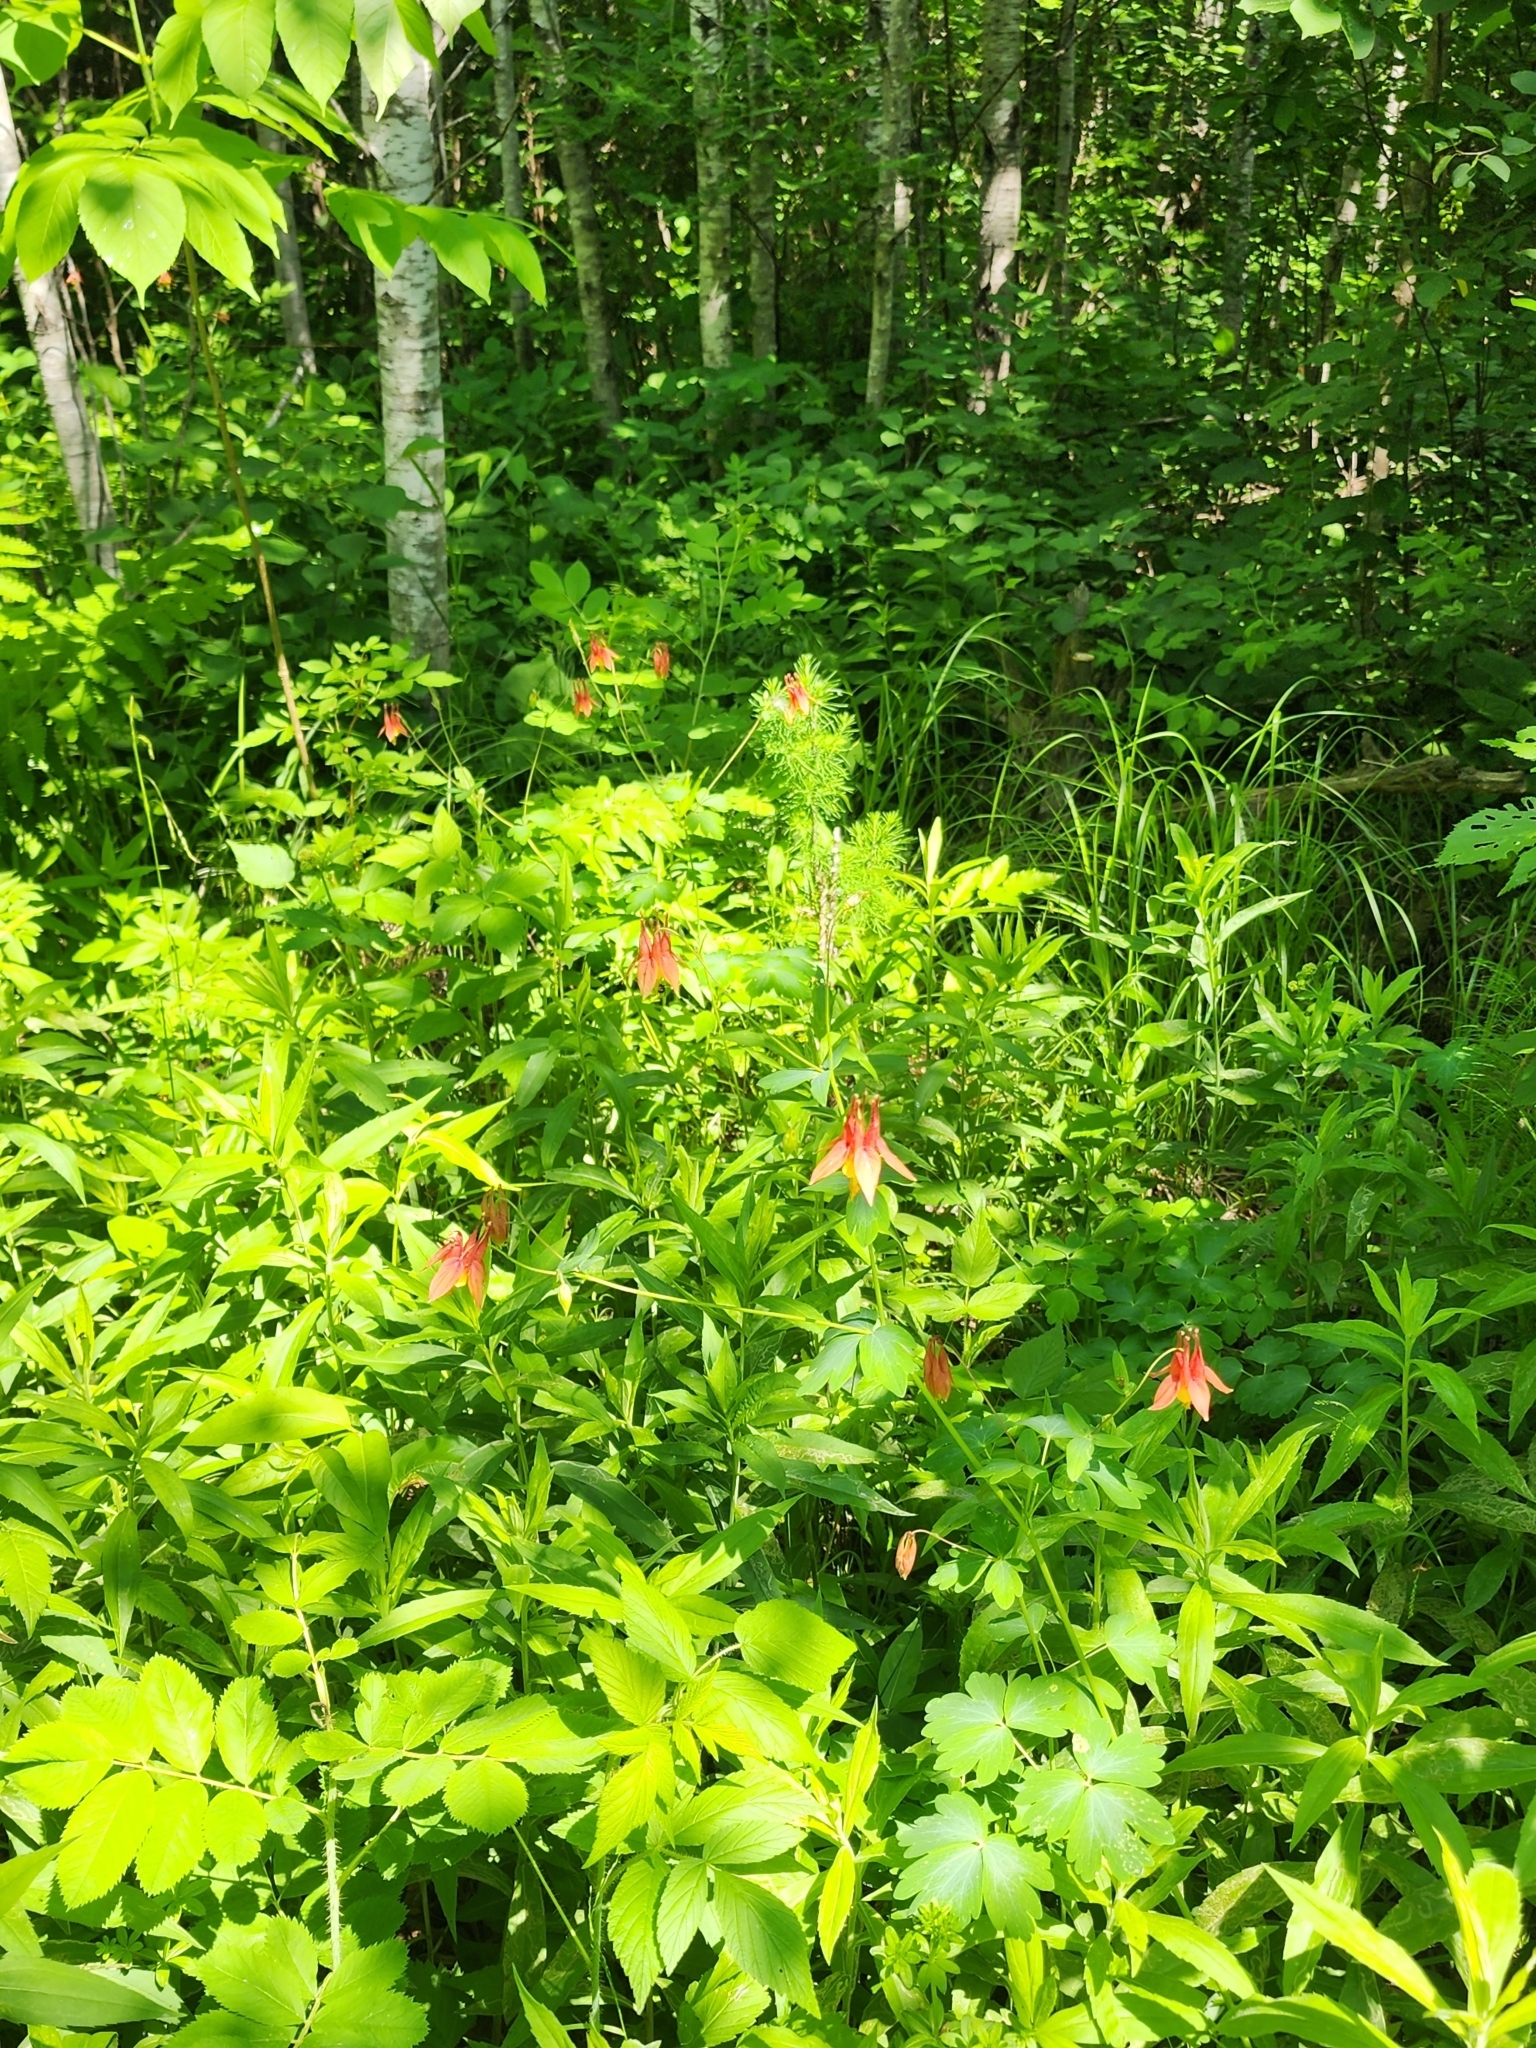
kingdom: Plantae
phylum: Tracheophyta
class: Magnoliopsida
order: Ranunculales
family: Ranunculaceae
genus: Aquilegia
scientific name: Aquilegia canadensis
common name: American columbine
